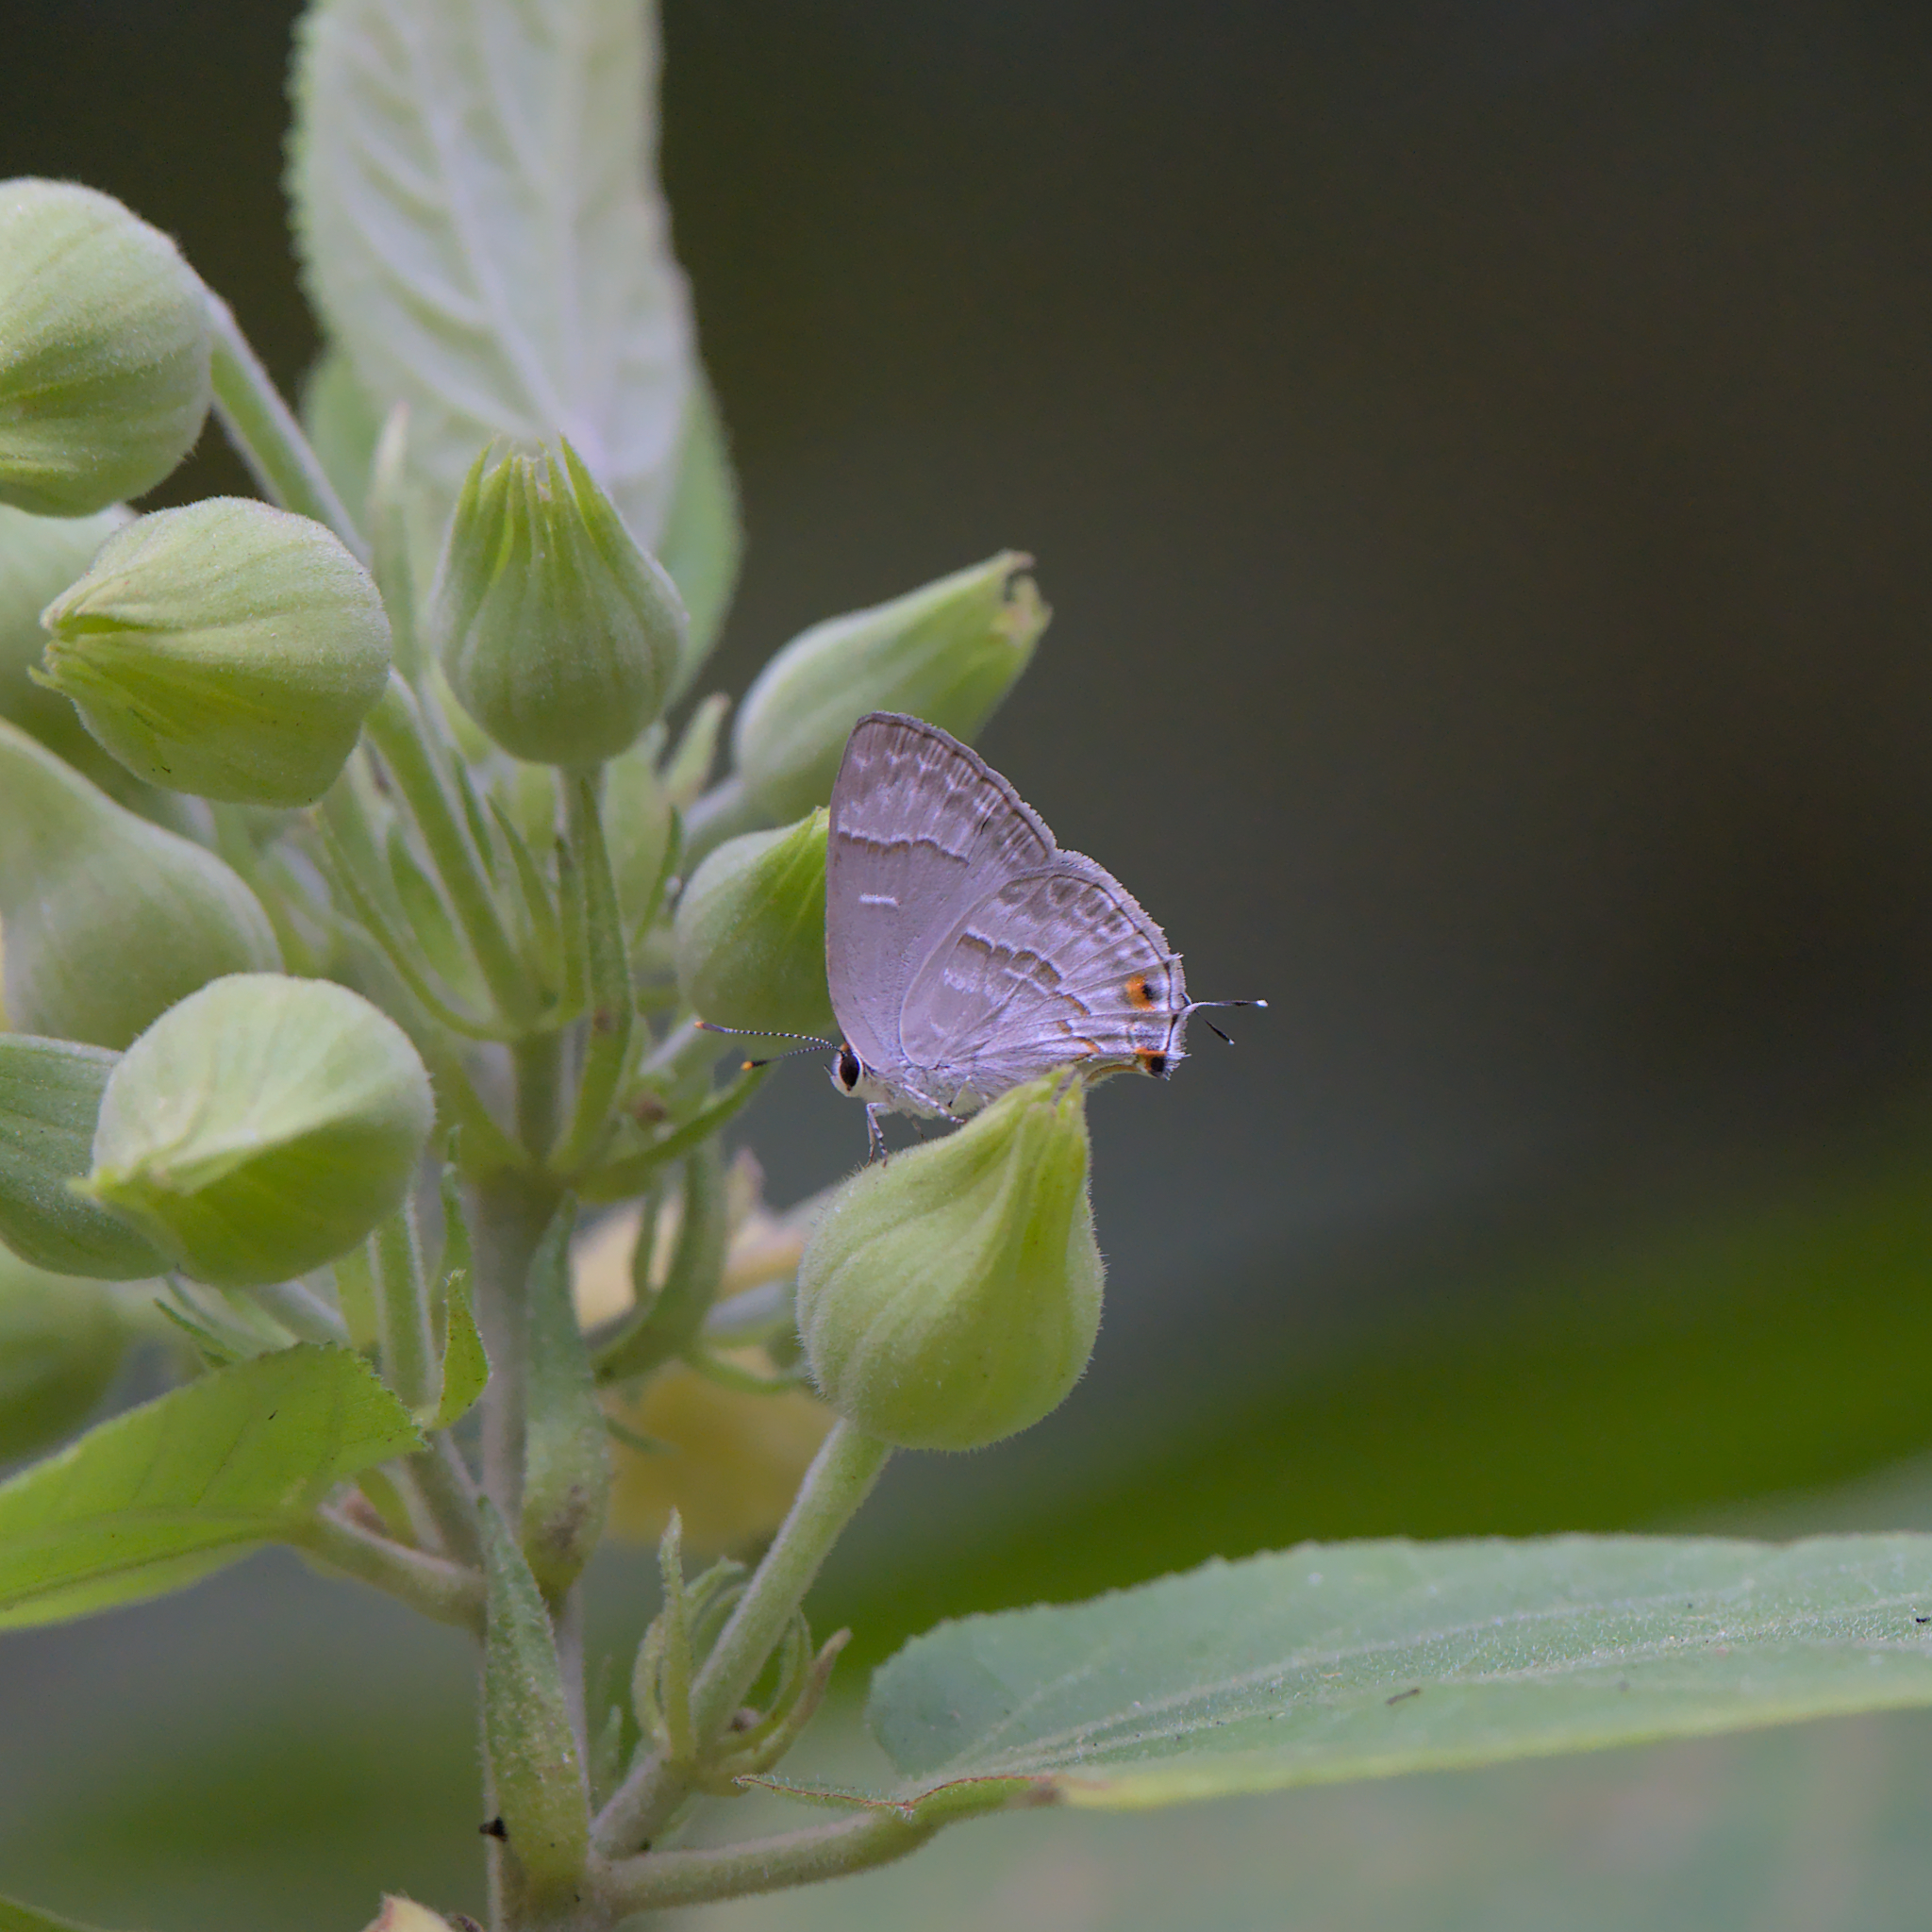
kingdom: Animalia
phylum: Arthropoda
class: Insecta
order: Lepidoptera
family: Lycaenidae
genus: Thecla
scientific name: Thecla yojoa
